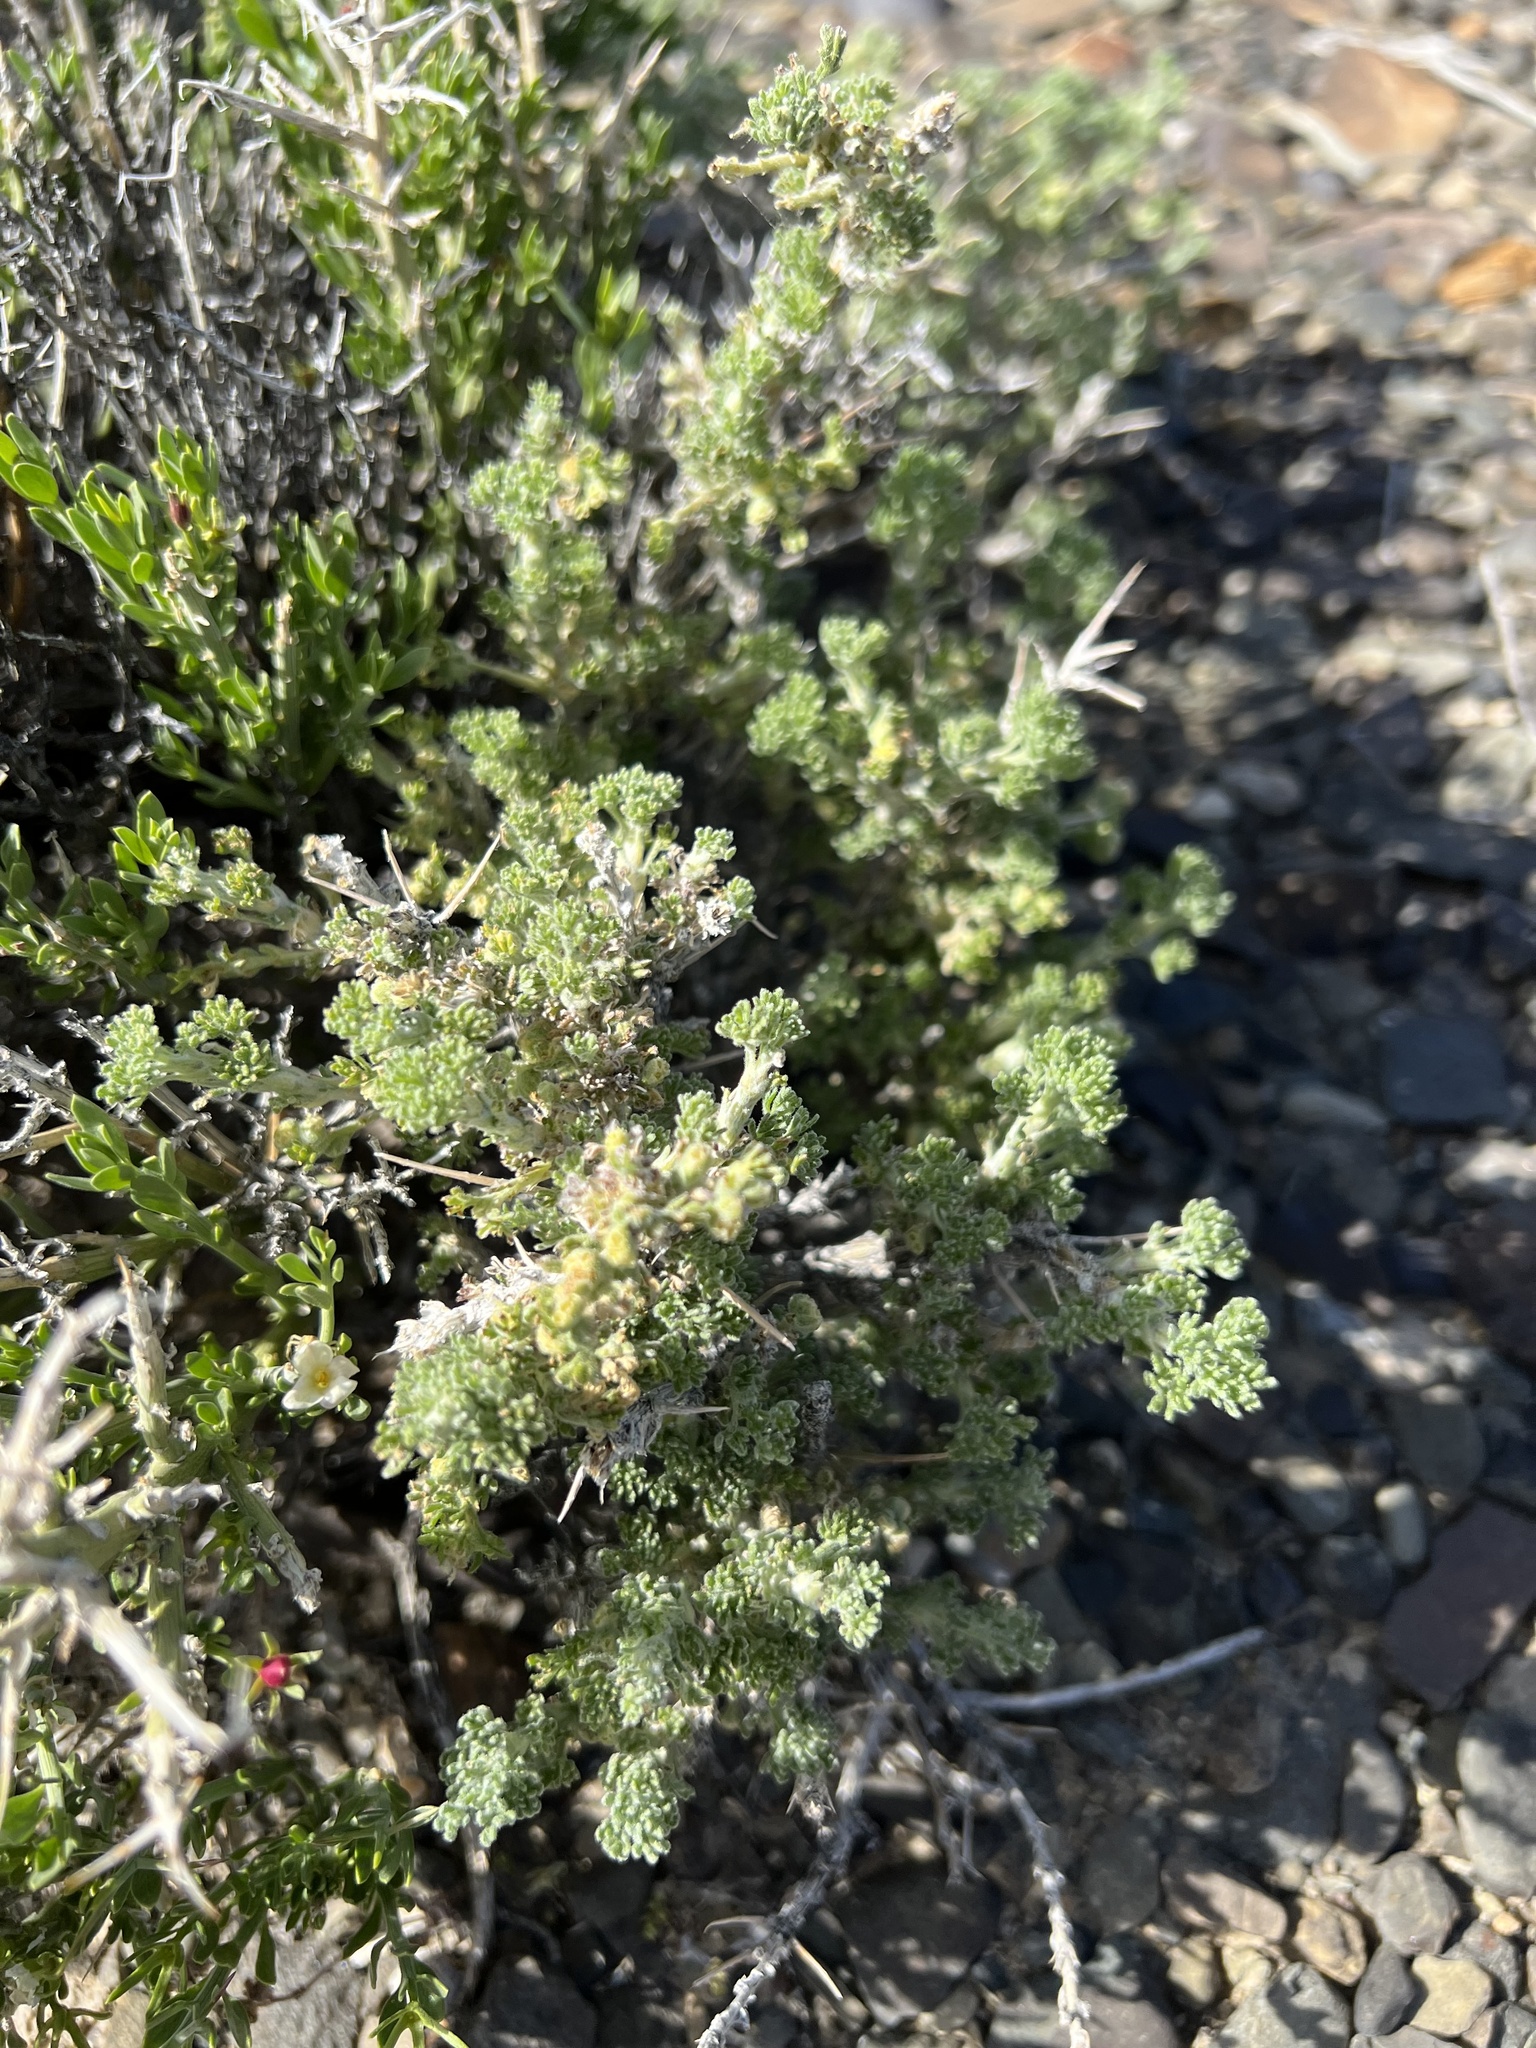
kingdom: Plantae
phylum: Tracheophyta
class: Magnoliopsida
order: Asterales
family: Asteraceae
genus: Artemisia
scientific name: Artemisia spinescens
